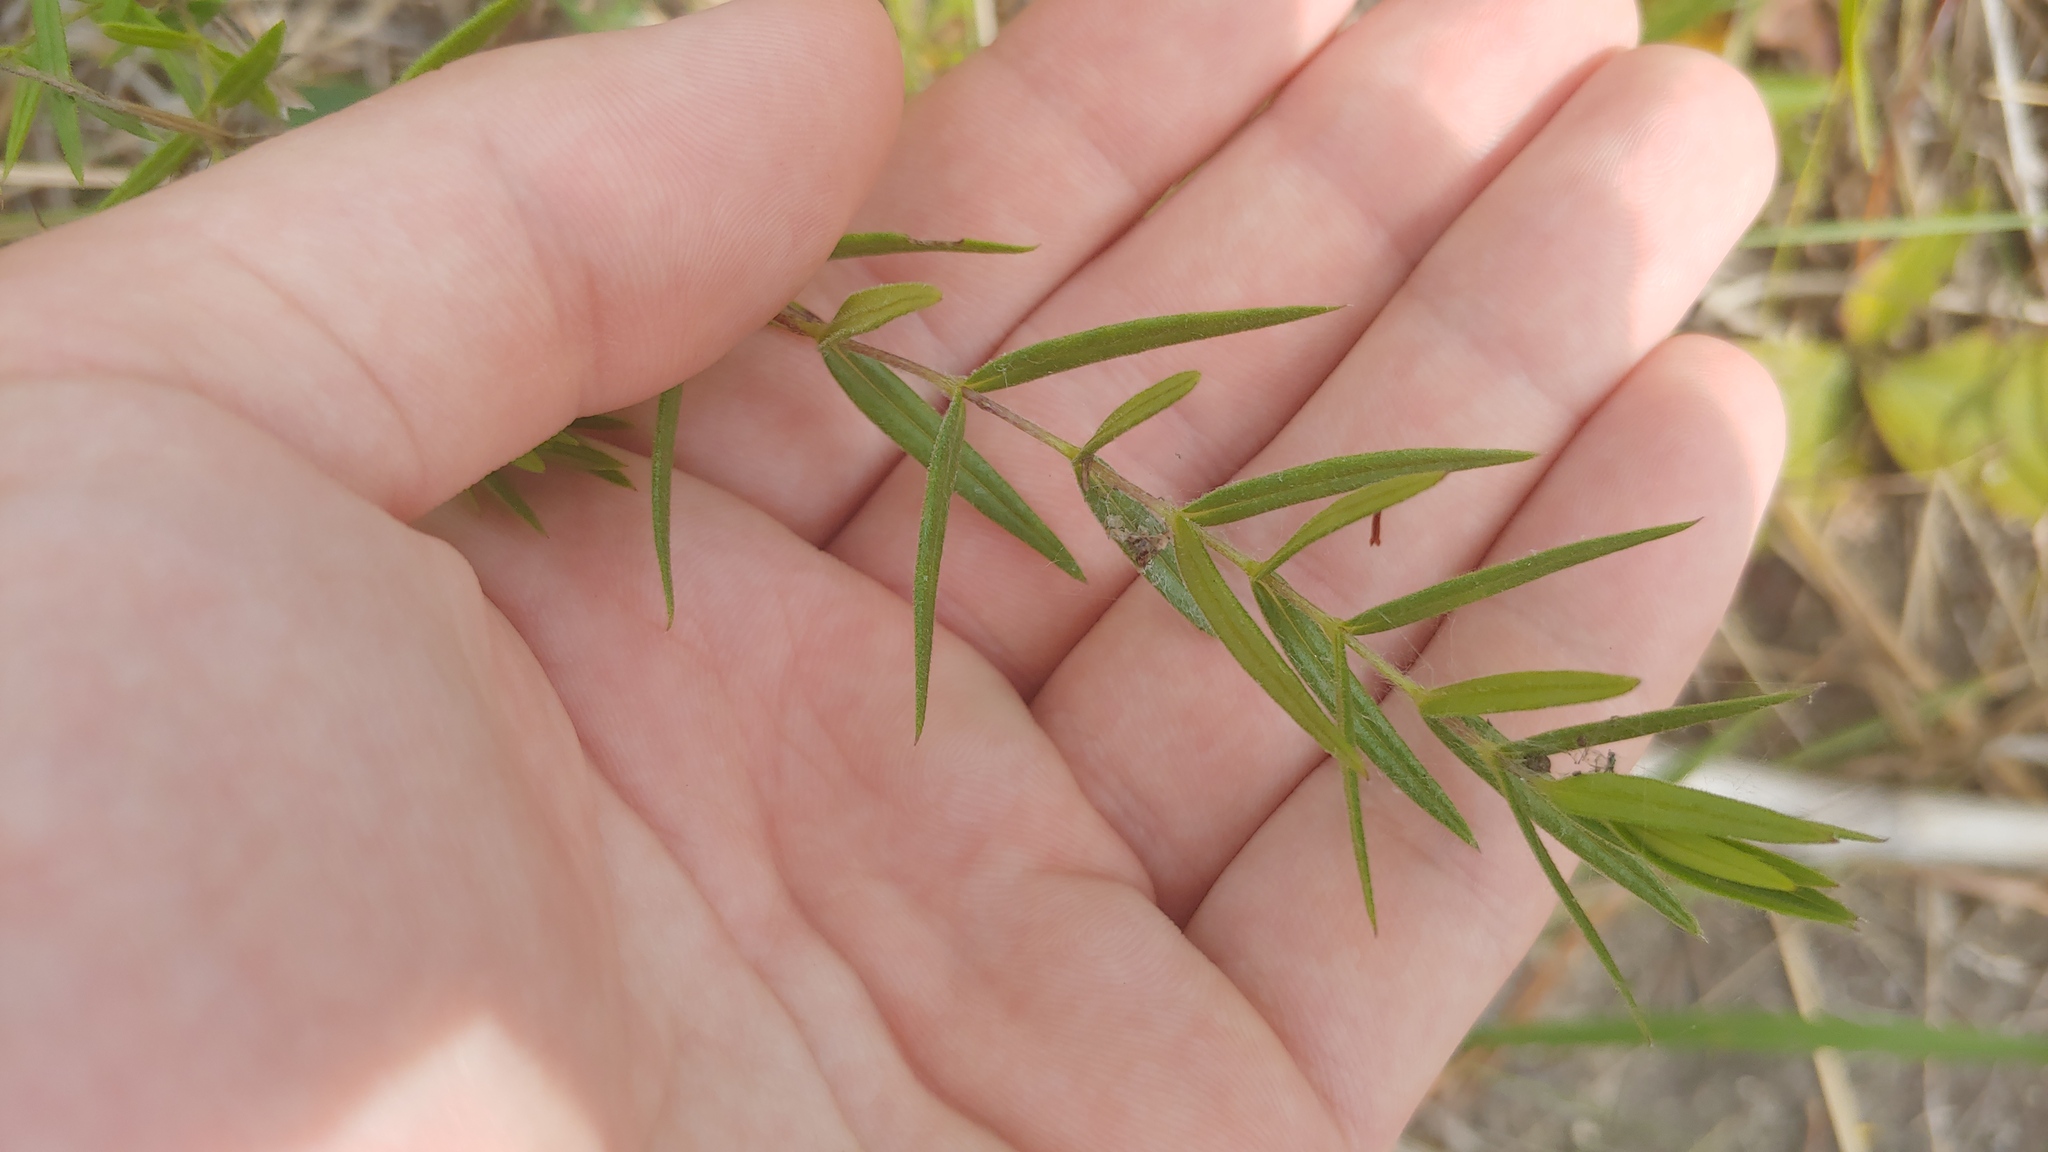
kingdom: Plantae
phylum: Tracheophyta
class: Magnoliopsida
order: Ericales
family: Polemoniaceae
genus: Phlox
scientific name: Phlox pilosa
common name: Prairie phlox
